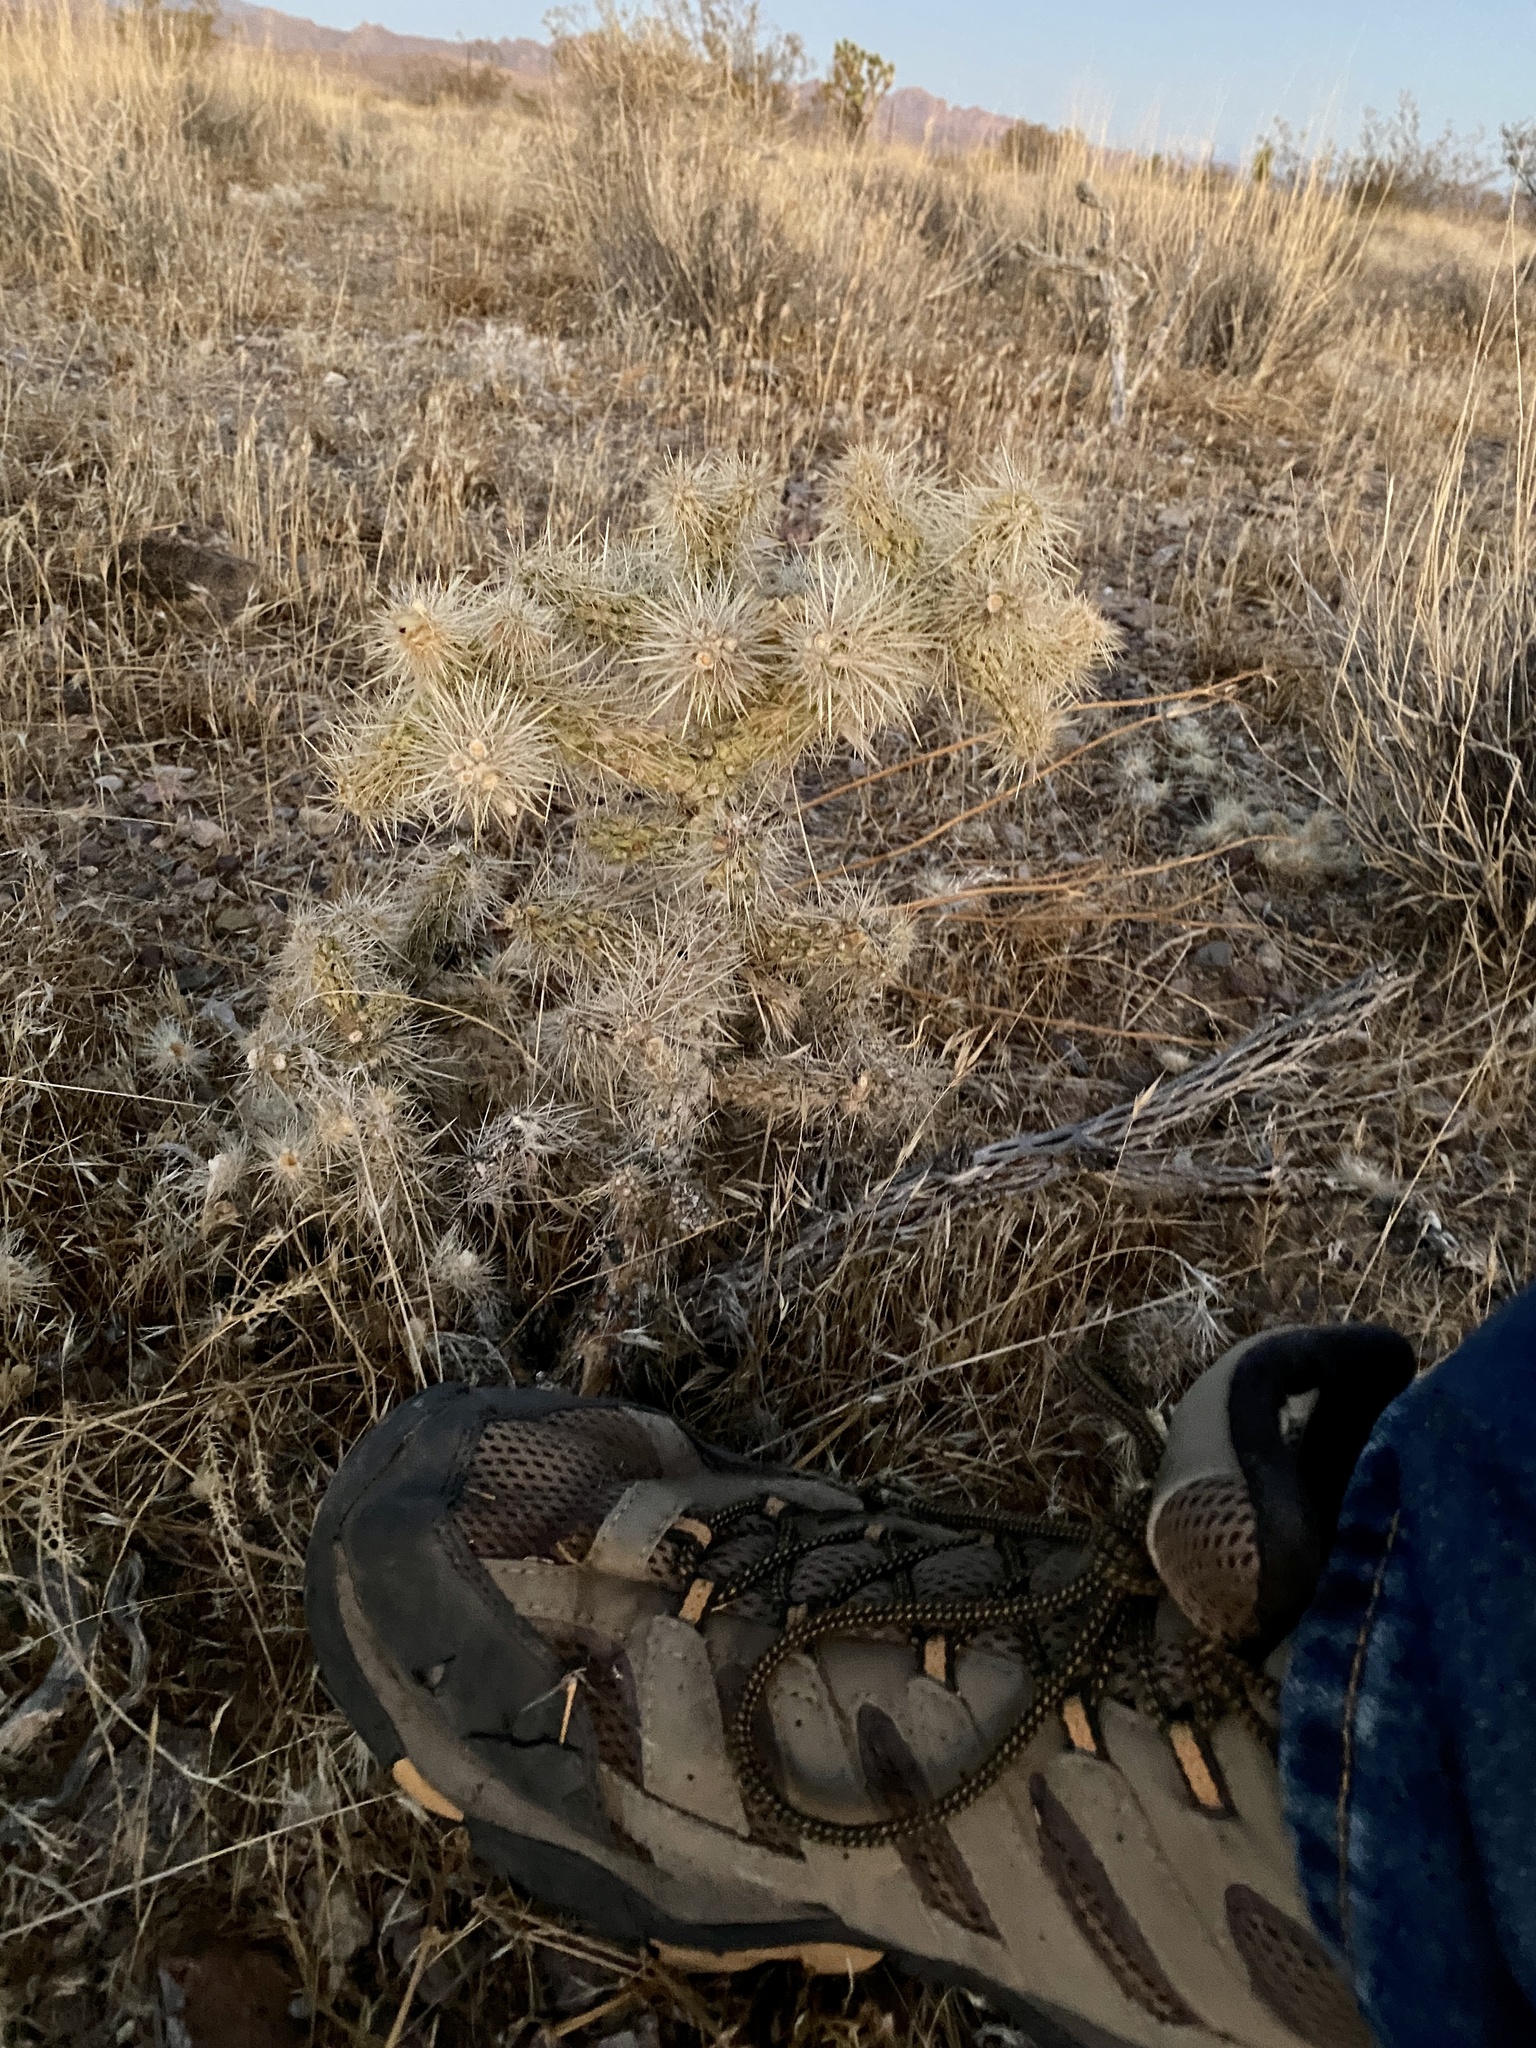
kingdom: Plantae
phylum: Tracheophyta
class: Magnoliopsida
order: Caryophyllales
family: Cactaceae
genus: Grusonia
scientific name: Grusonia parishiorum
